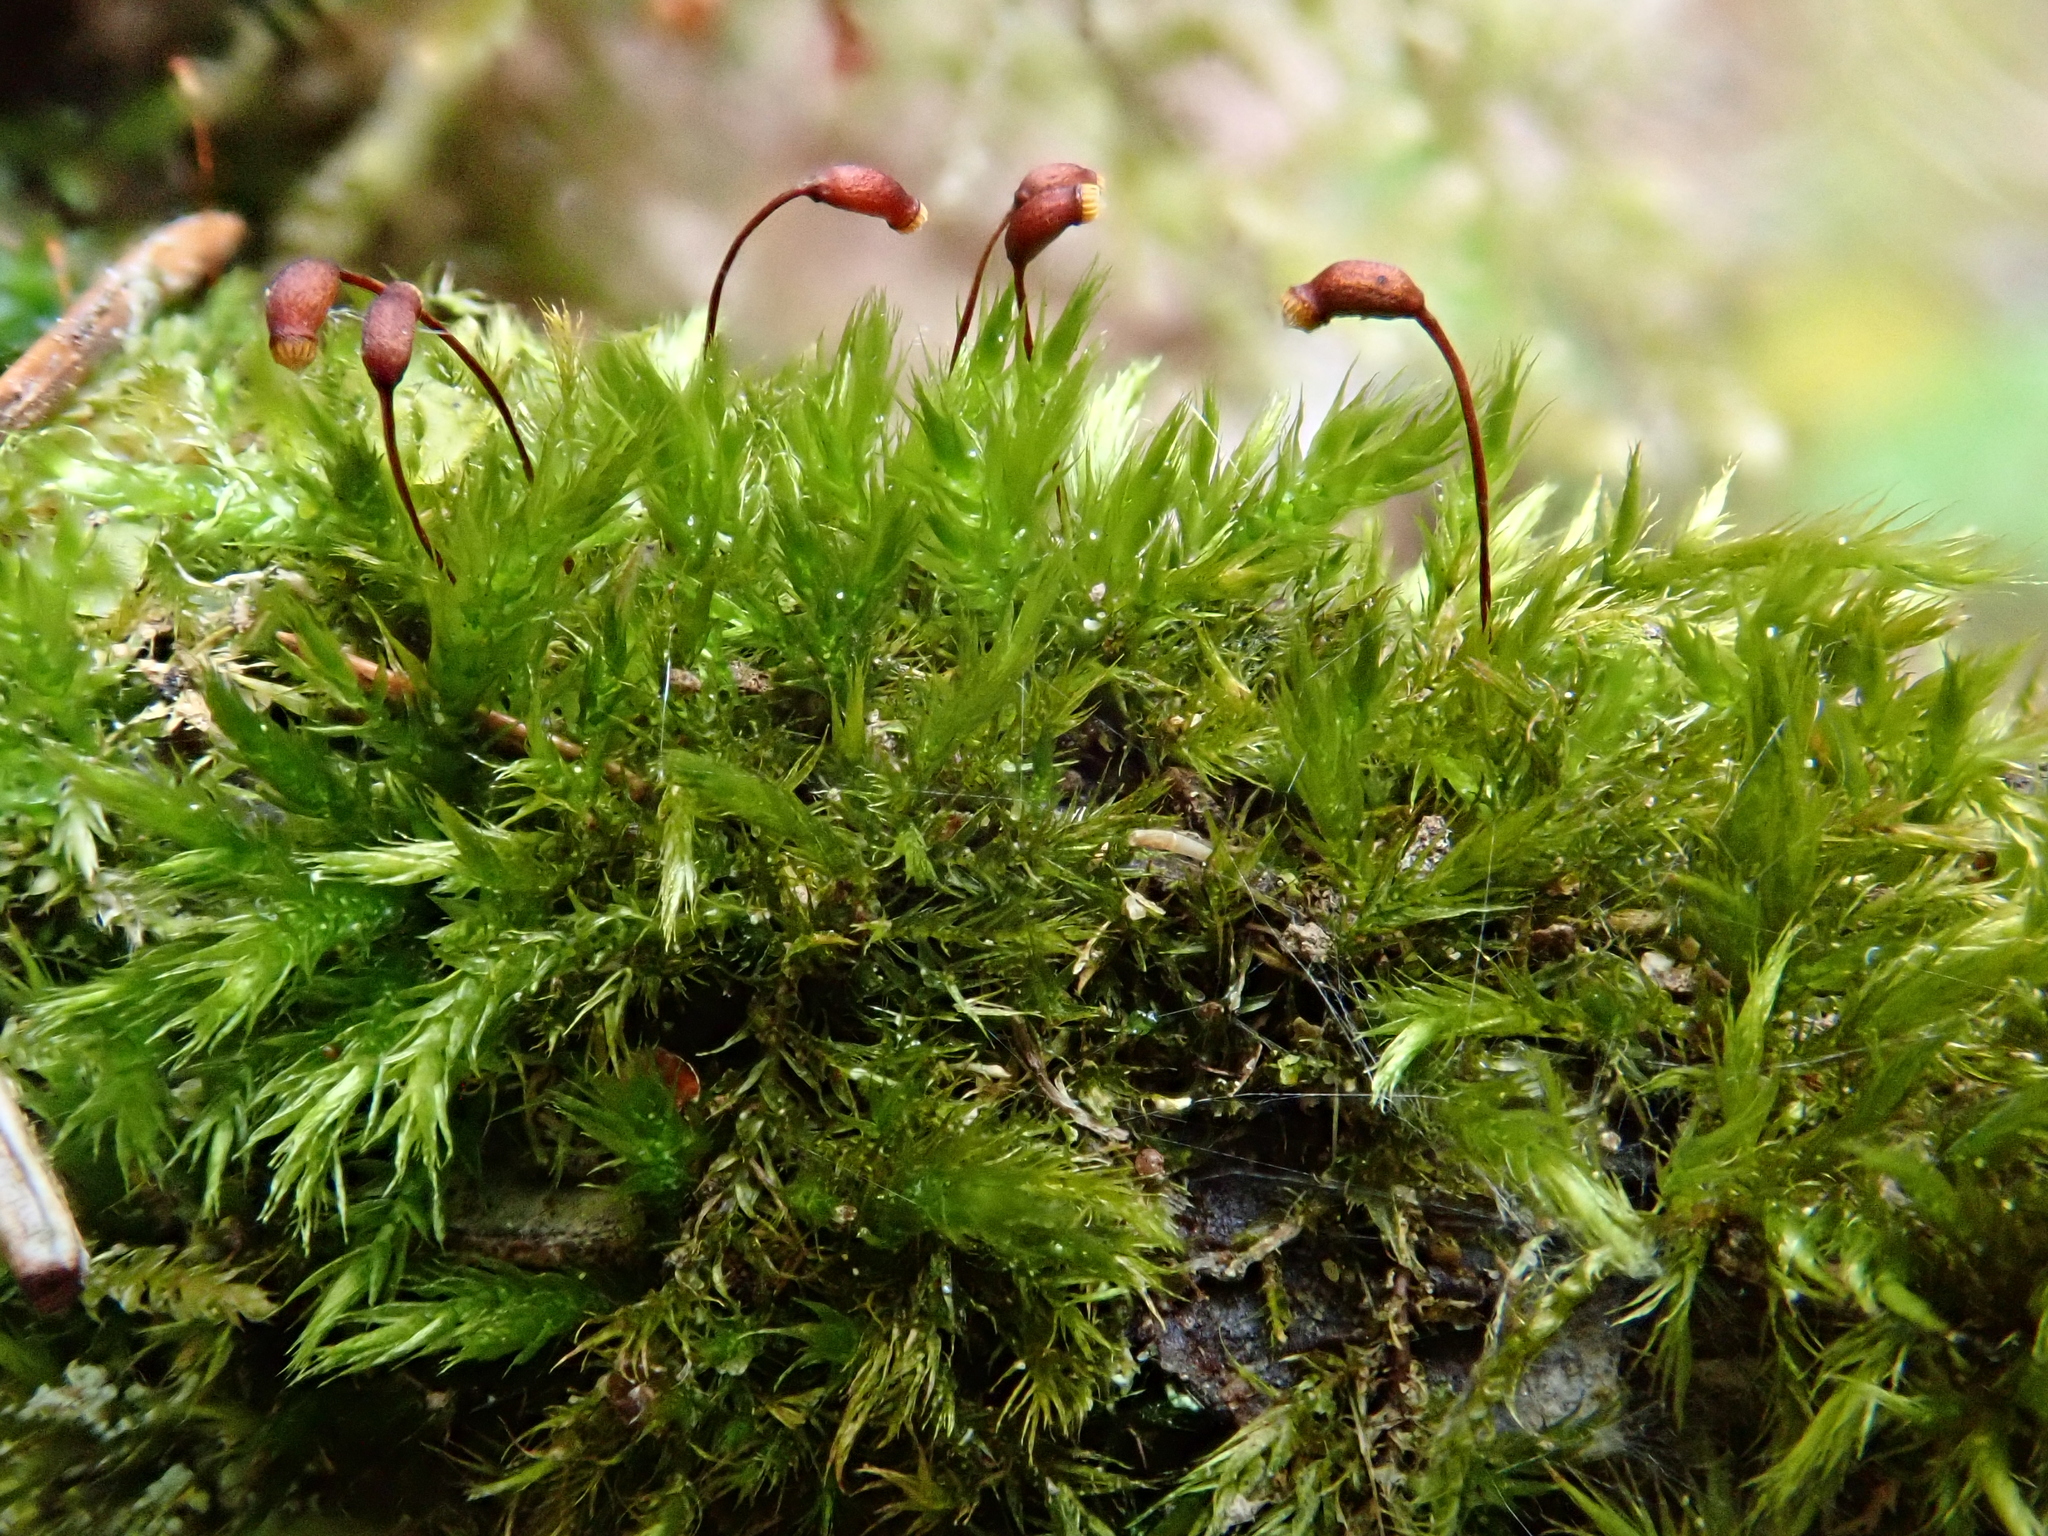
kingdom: Plantae
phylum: Bryophyta
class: Bryopsida
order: Hypnales
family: Brachytheciaceae
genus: Sciuro-hypnum
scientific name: Sciuro-hypnum populeum
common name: Matted feather-moss
